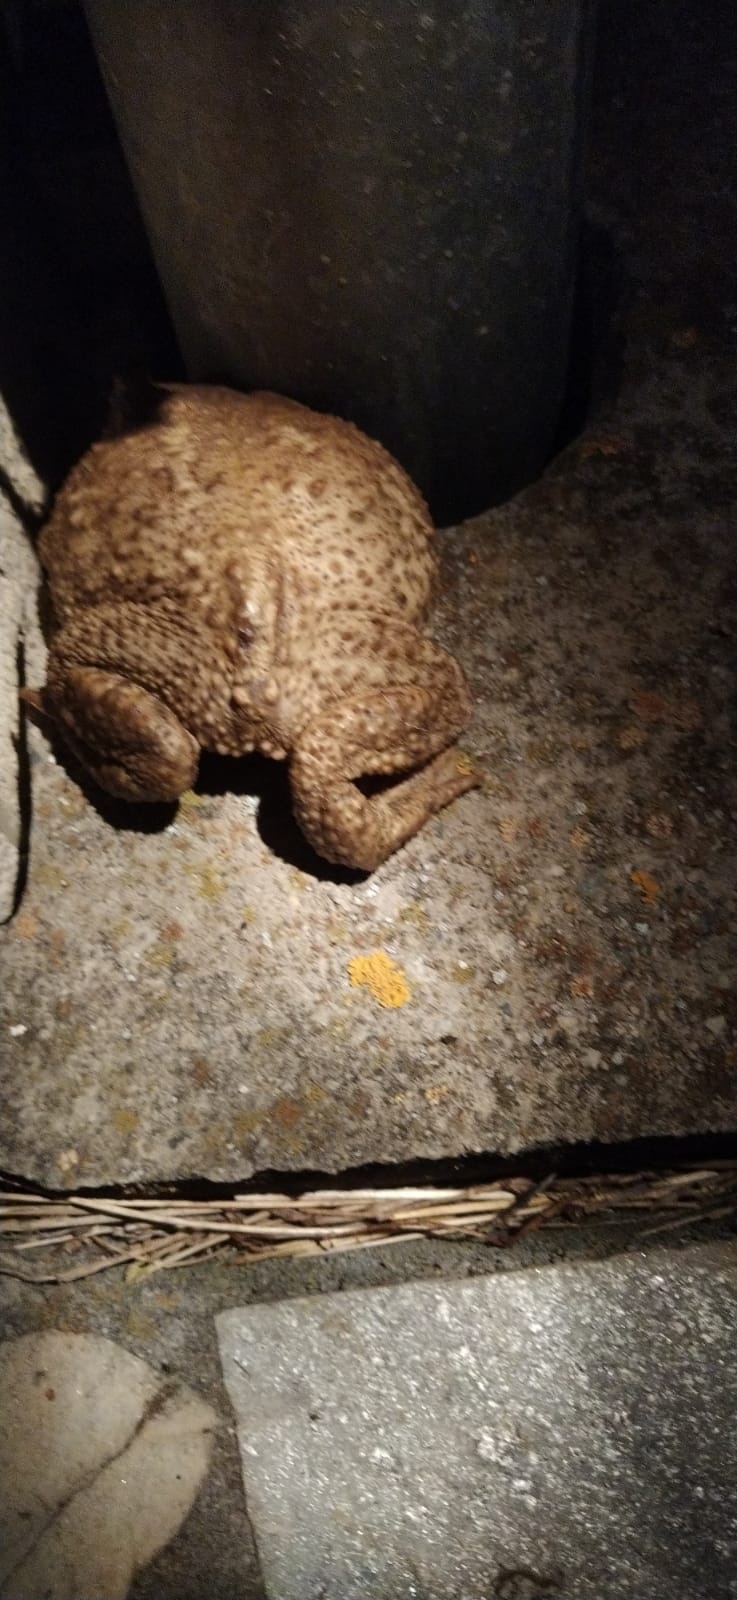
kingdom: Animalia
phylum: Chordata
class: Amphibia
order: Anura
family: Bufonidae
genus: Bufo
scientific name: Bufo spinosus
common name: Western common toad
